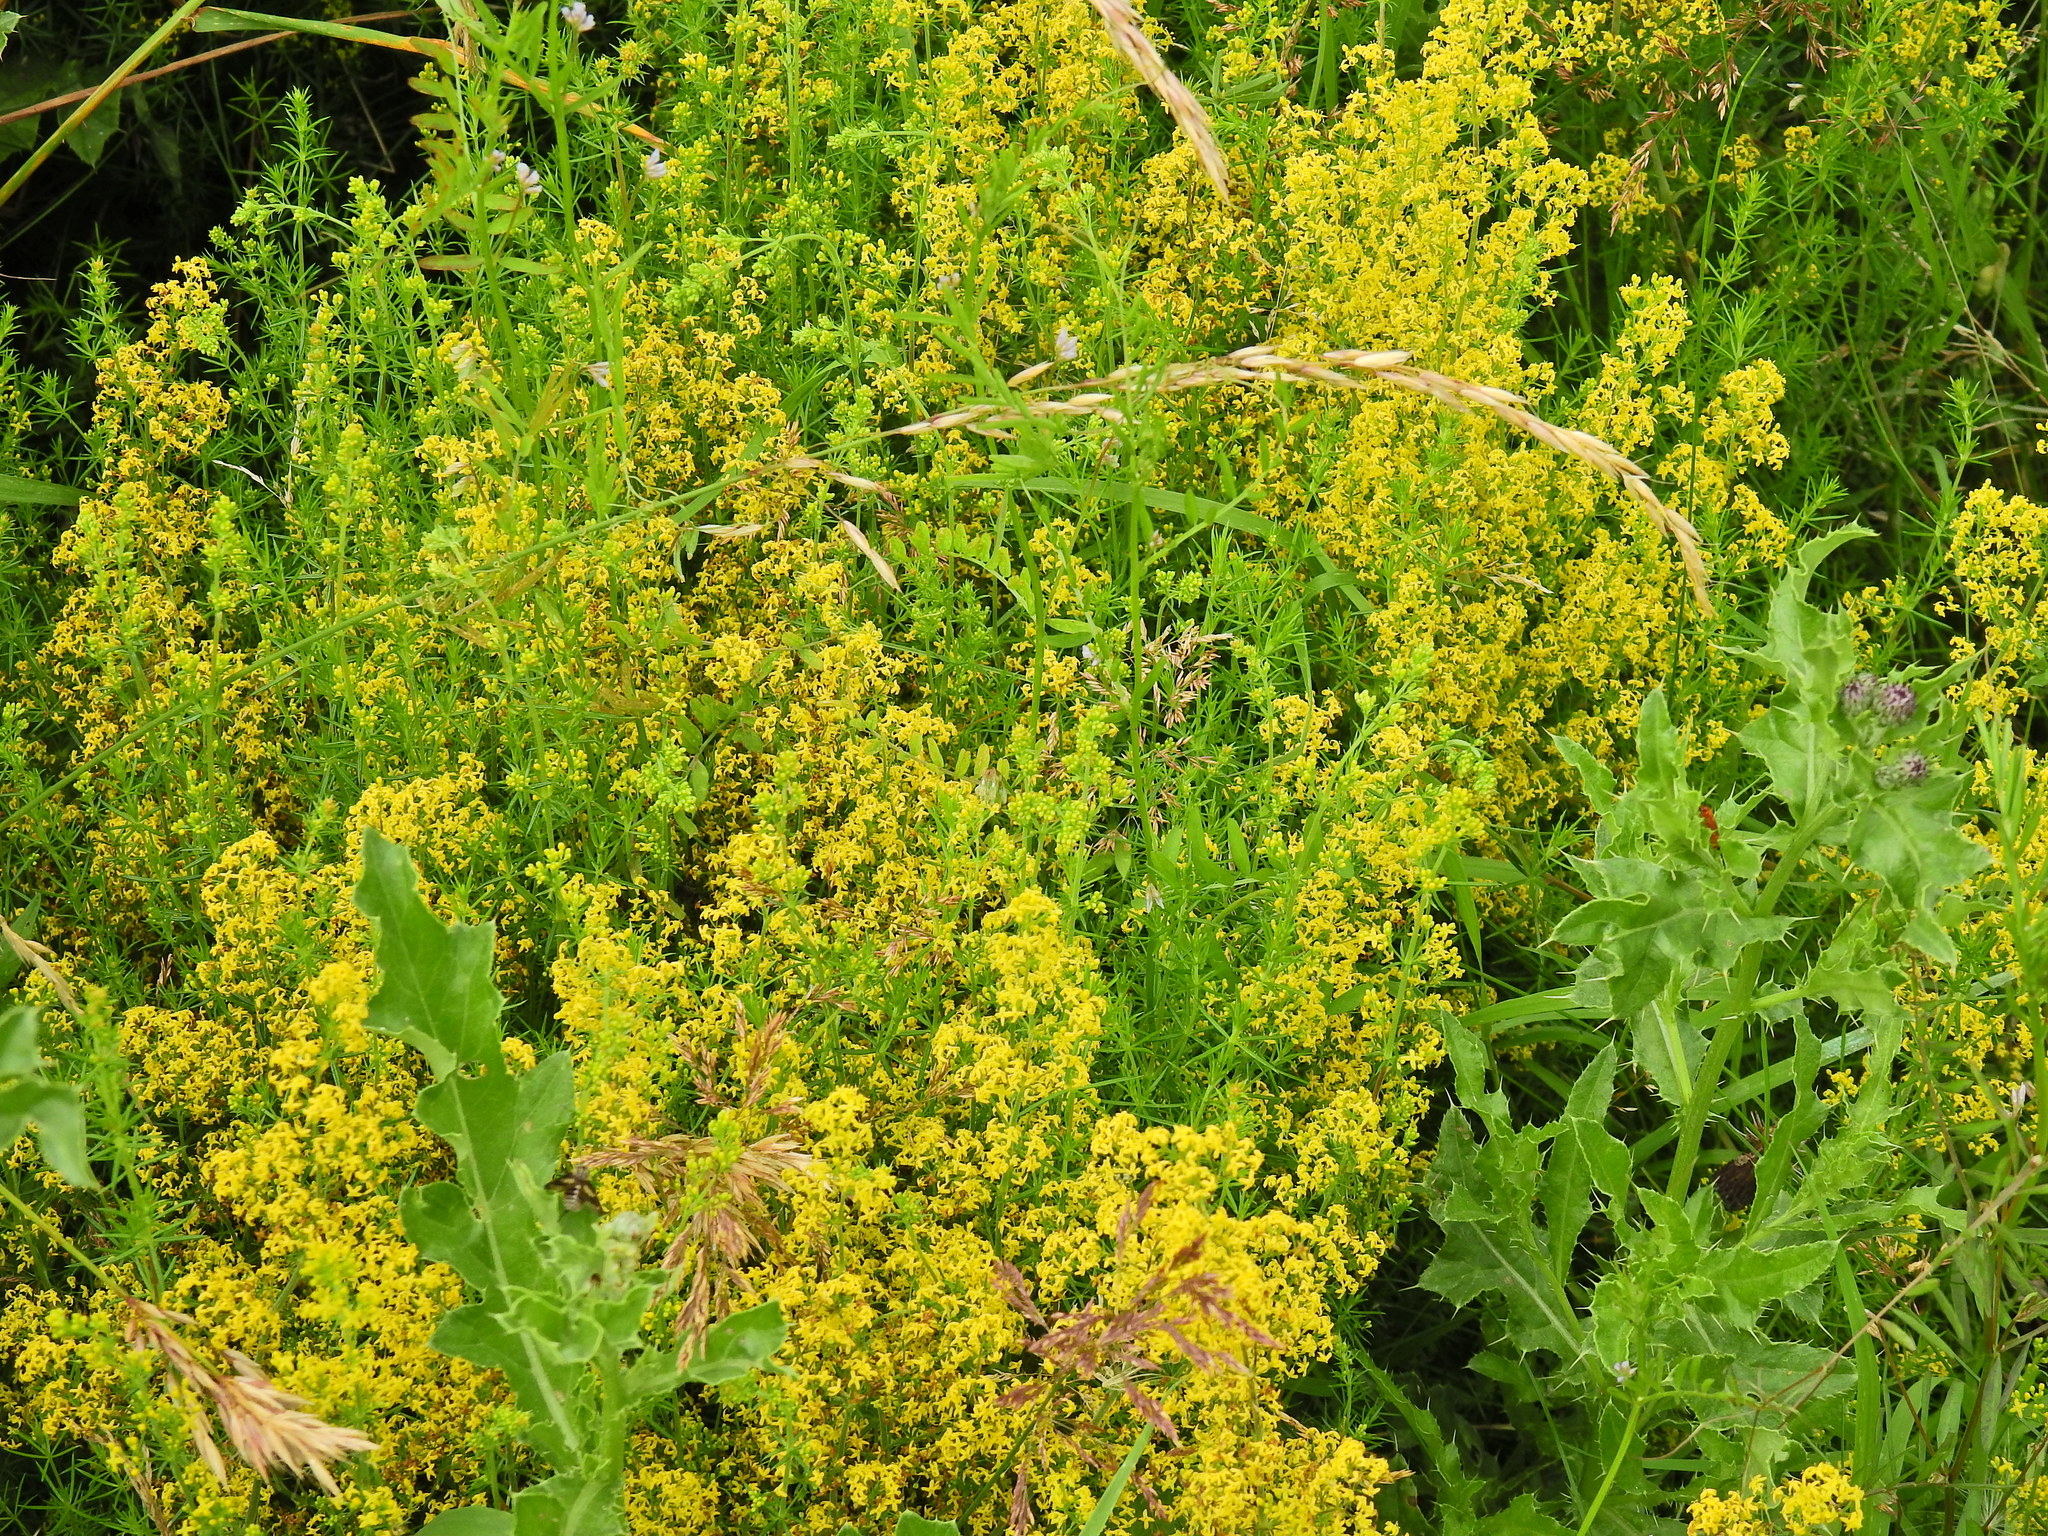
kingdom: Plantae
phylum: Tracheophyta
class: Magnoliopsida
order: Gentianales
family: Rubiaceae
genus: Galium
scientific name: Galium verum
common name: Lady's bedstraw
